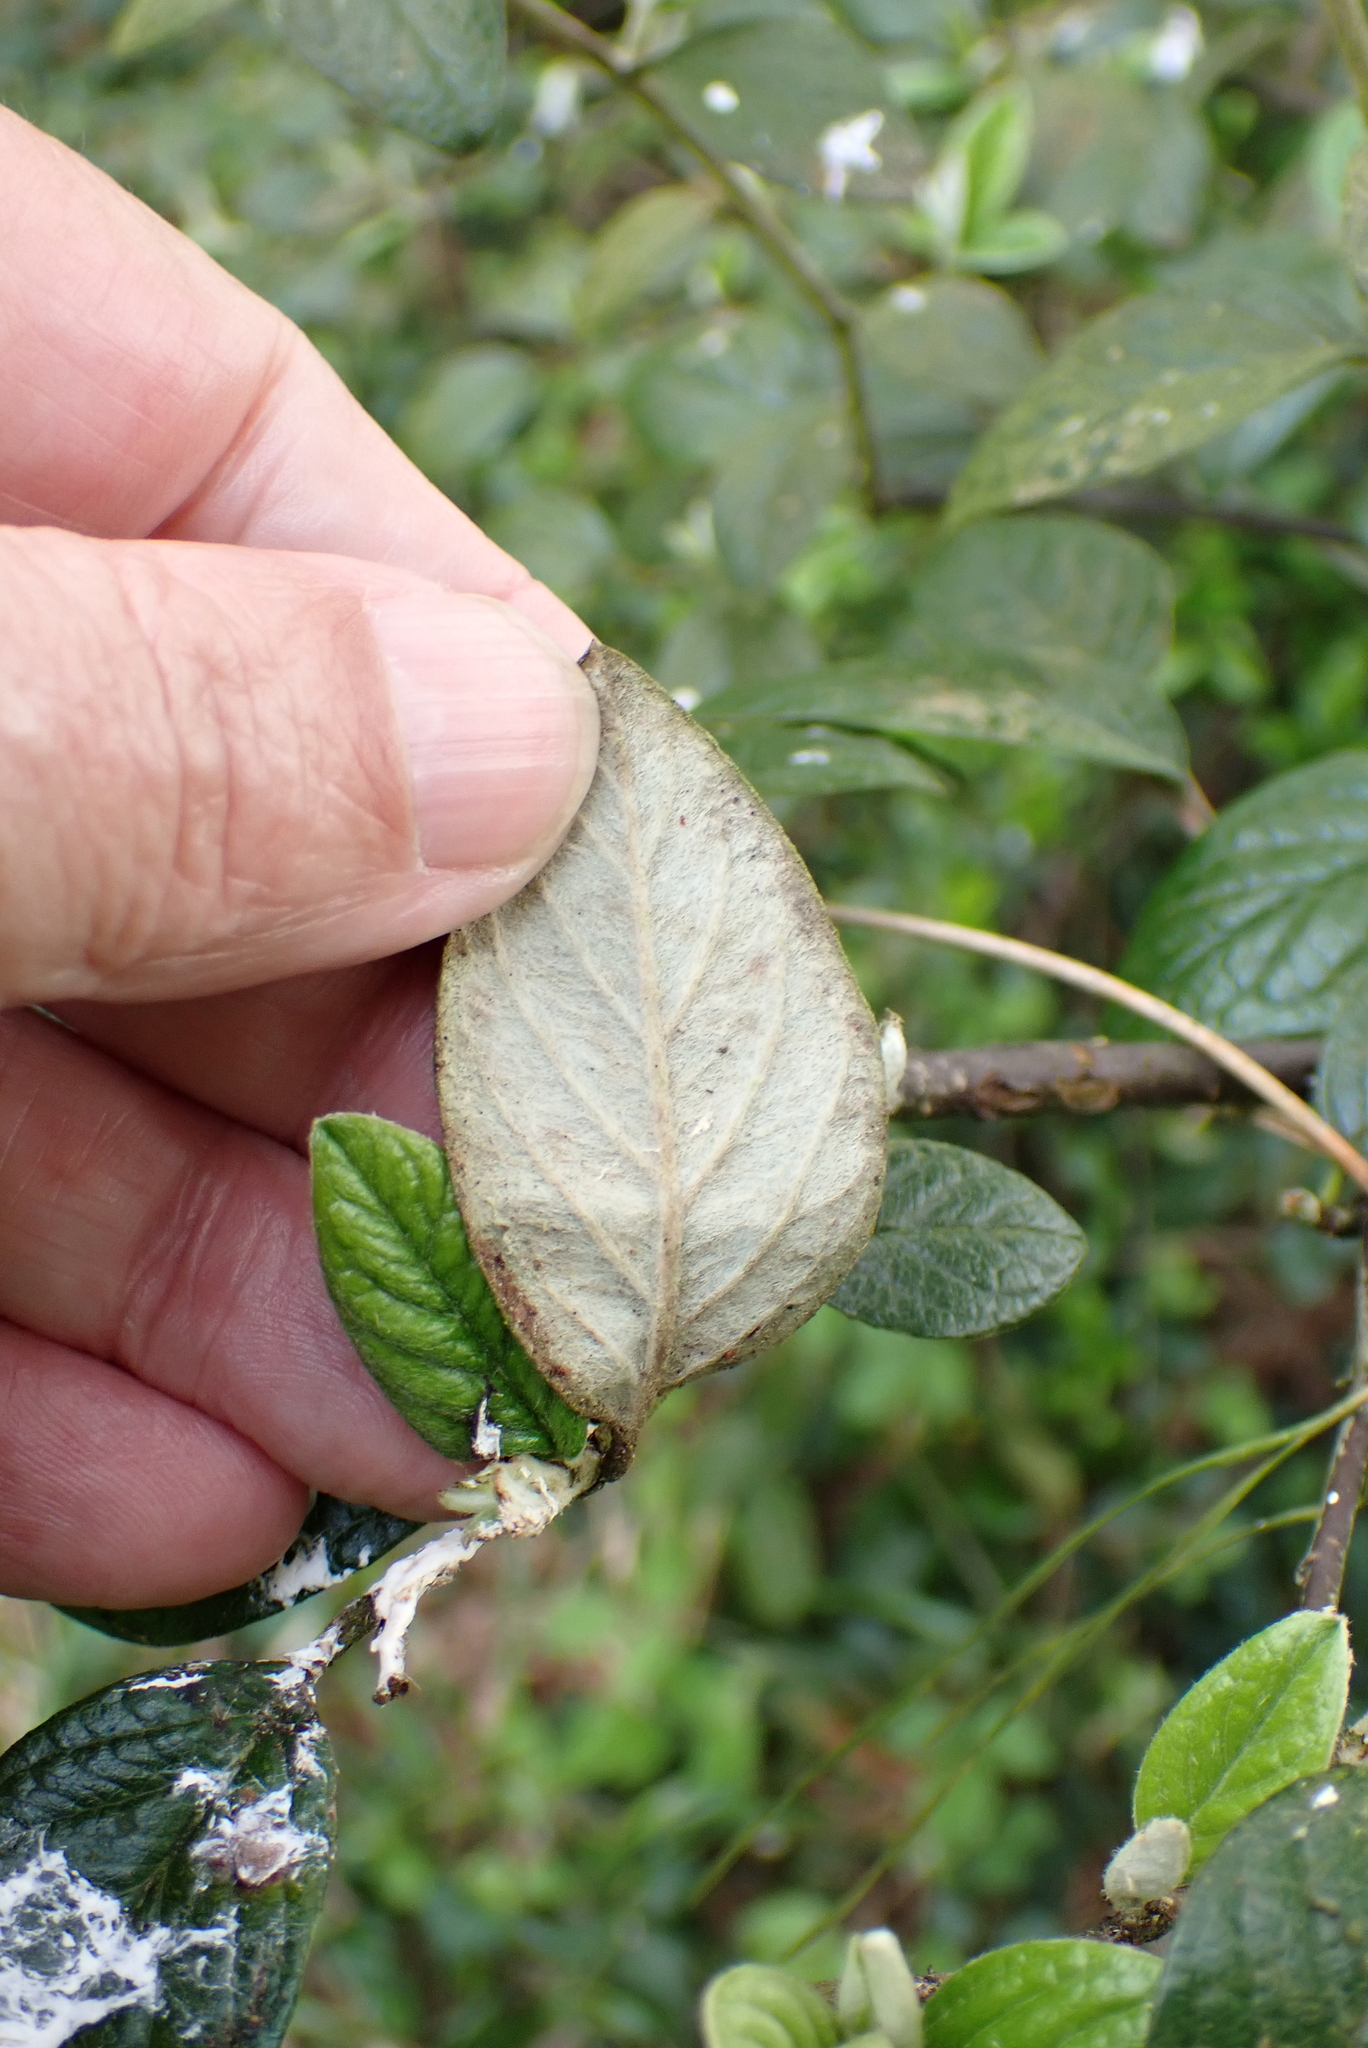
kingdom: Plantae
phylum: Tracheophyta
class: Magnoliopsida
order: Rosales
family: Rosaceae
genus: Cotoneaster
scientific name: Cotoneaster franchetii
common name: Franchet's cotoneaster
